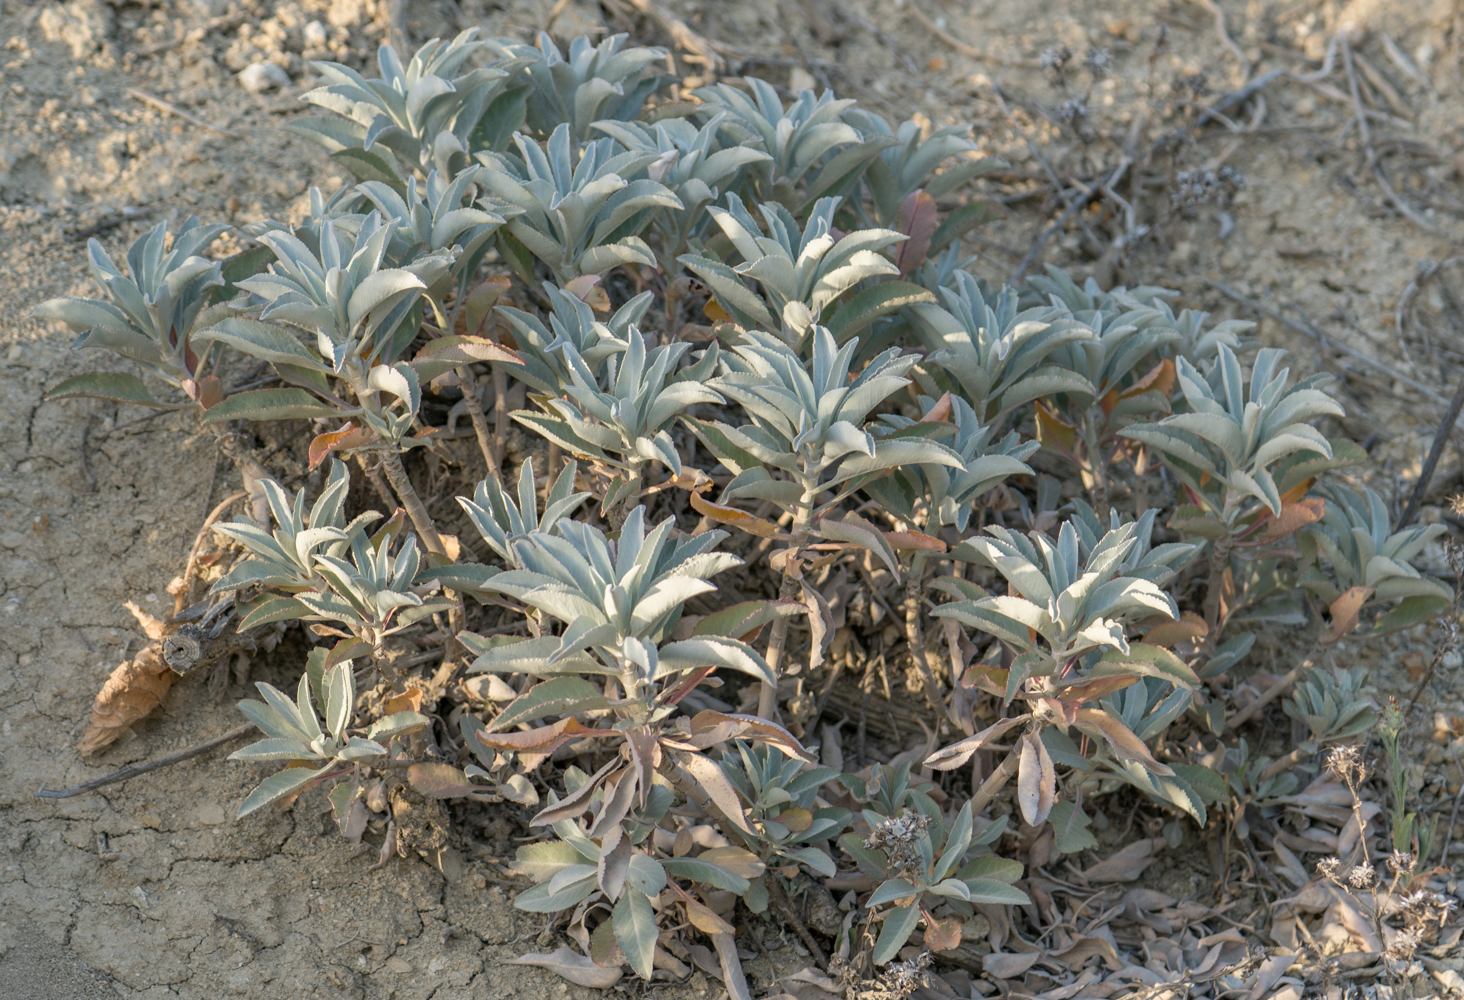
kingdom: Plantae
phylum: Tracheophyta
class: Magnoliopsida
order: Lamiales
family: Lamiaceae
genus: Salvia
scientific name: Salvia apiana
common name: White sage
